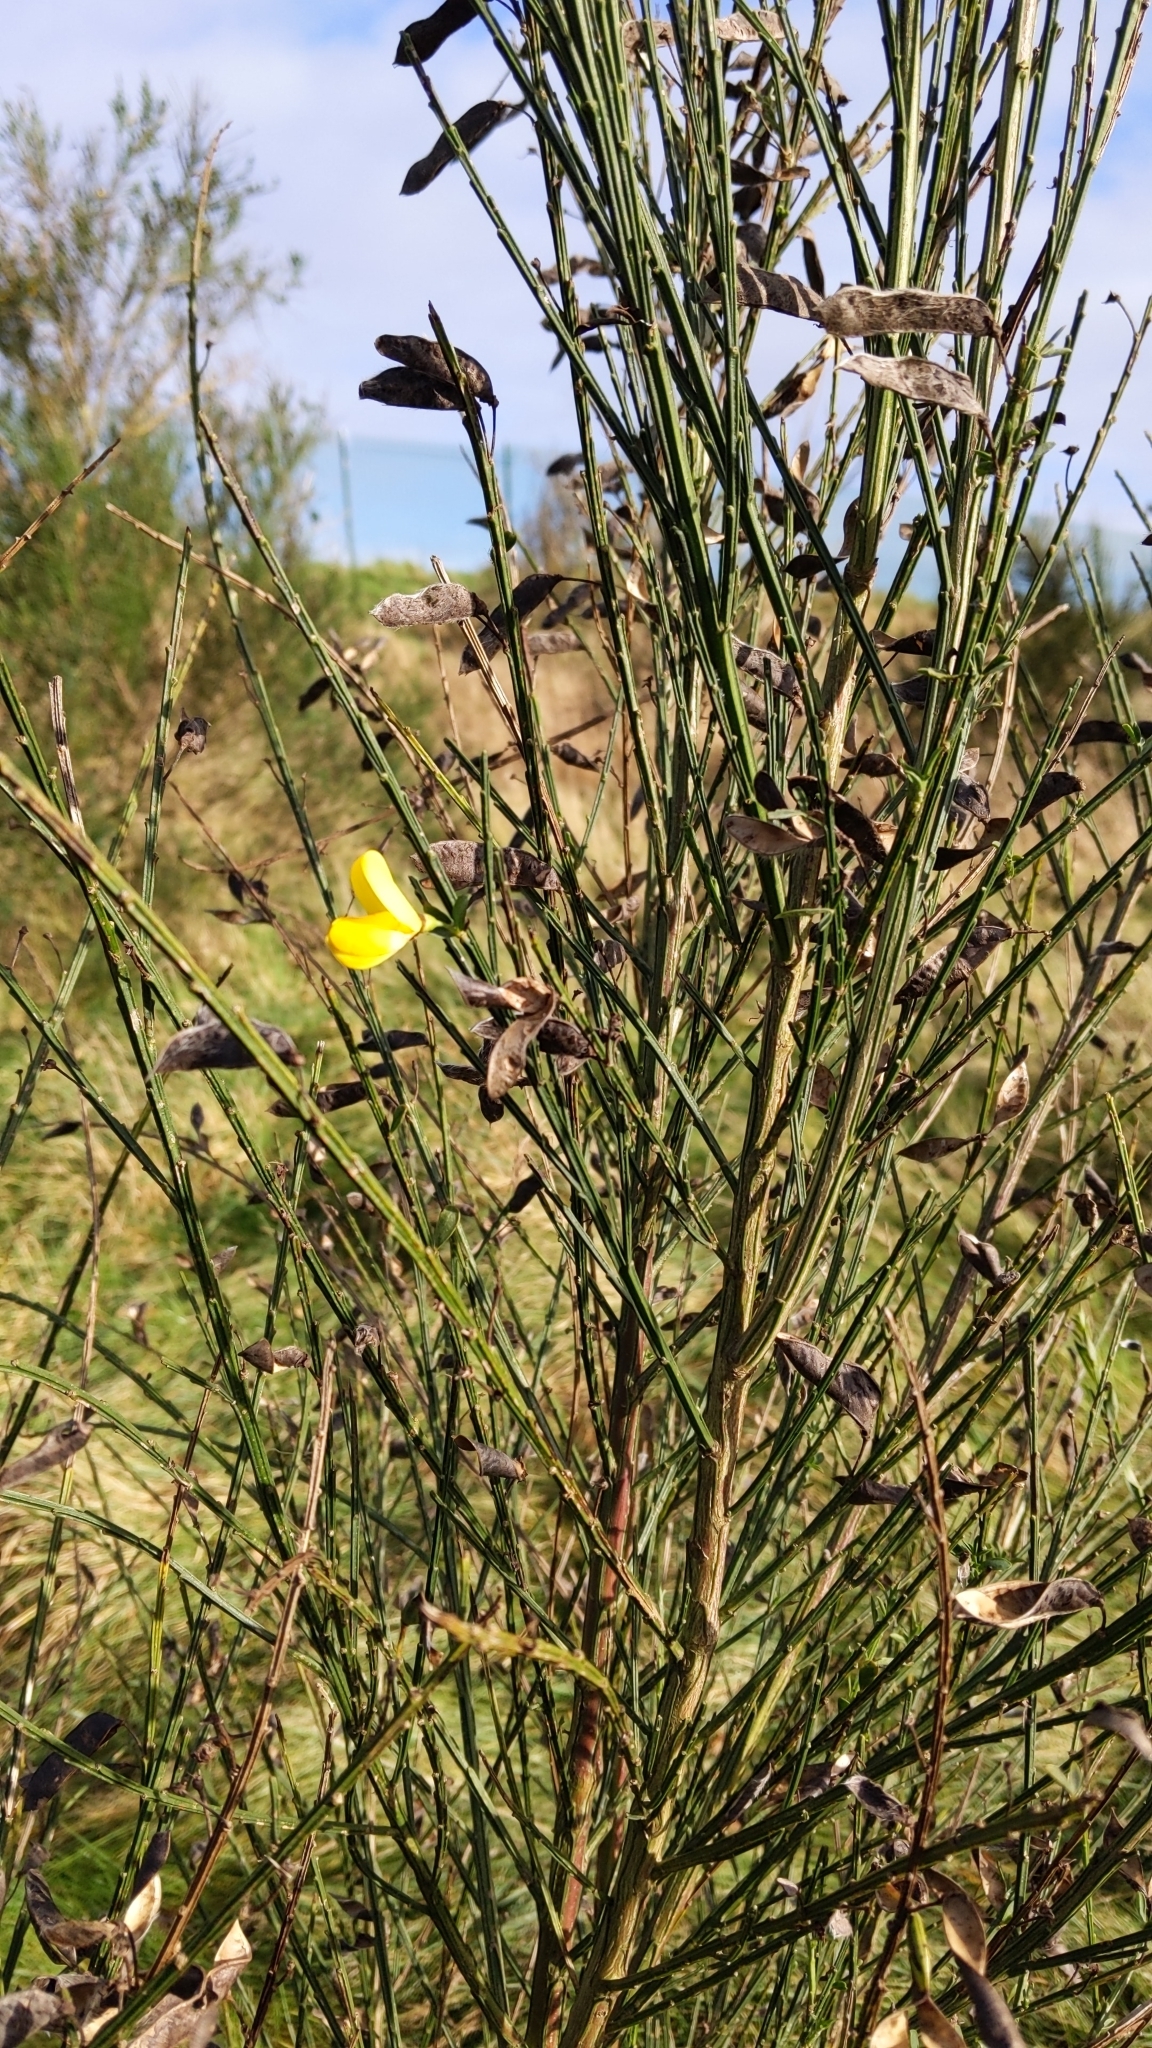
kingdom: Plantae
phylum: Tracheophyta
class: Magnoliopsida
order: Fabales
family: Fabaceae
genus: Cytisus
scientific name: Cytisus scoparius
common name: Scotch broom
